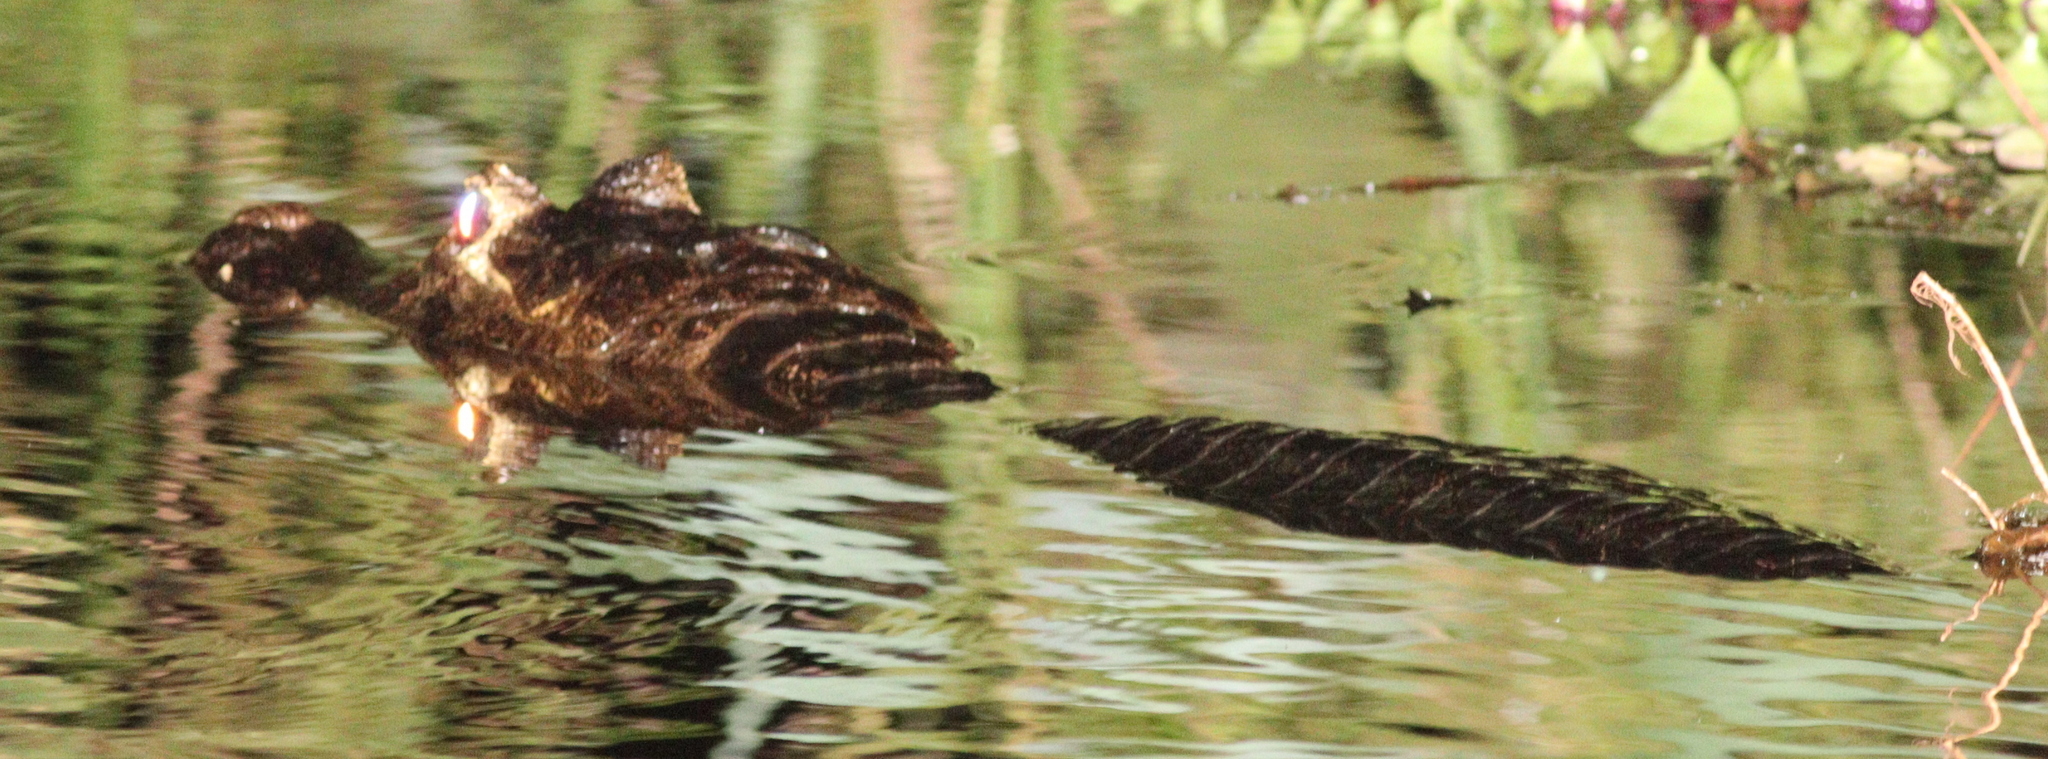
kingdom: Animalia
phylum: Chordata
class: Crocodylia
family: Alligatoridae
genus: Caiman
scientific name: Caiman yacare
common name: Yacare caiman
